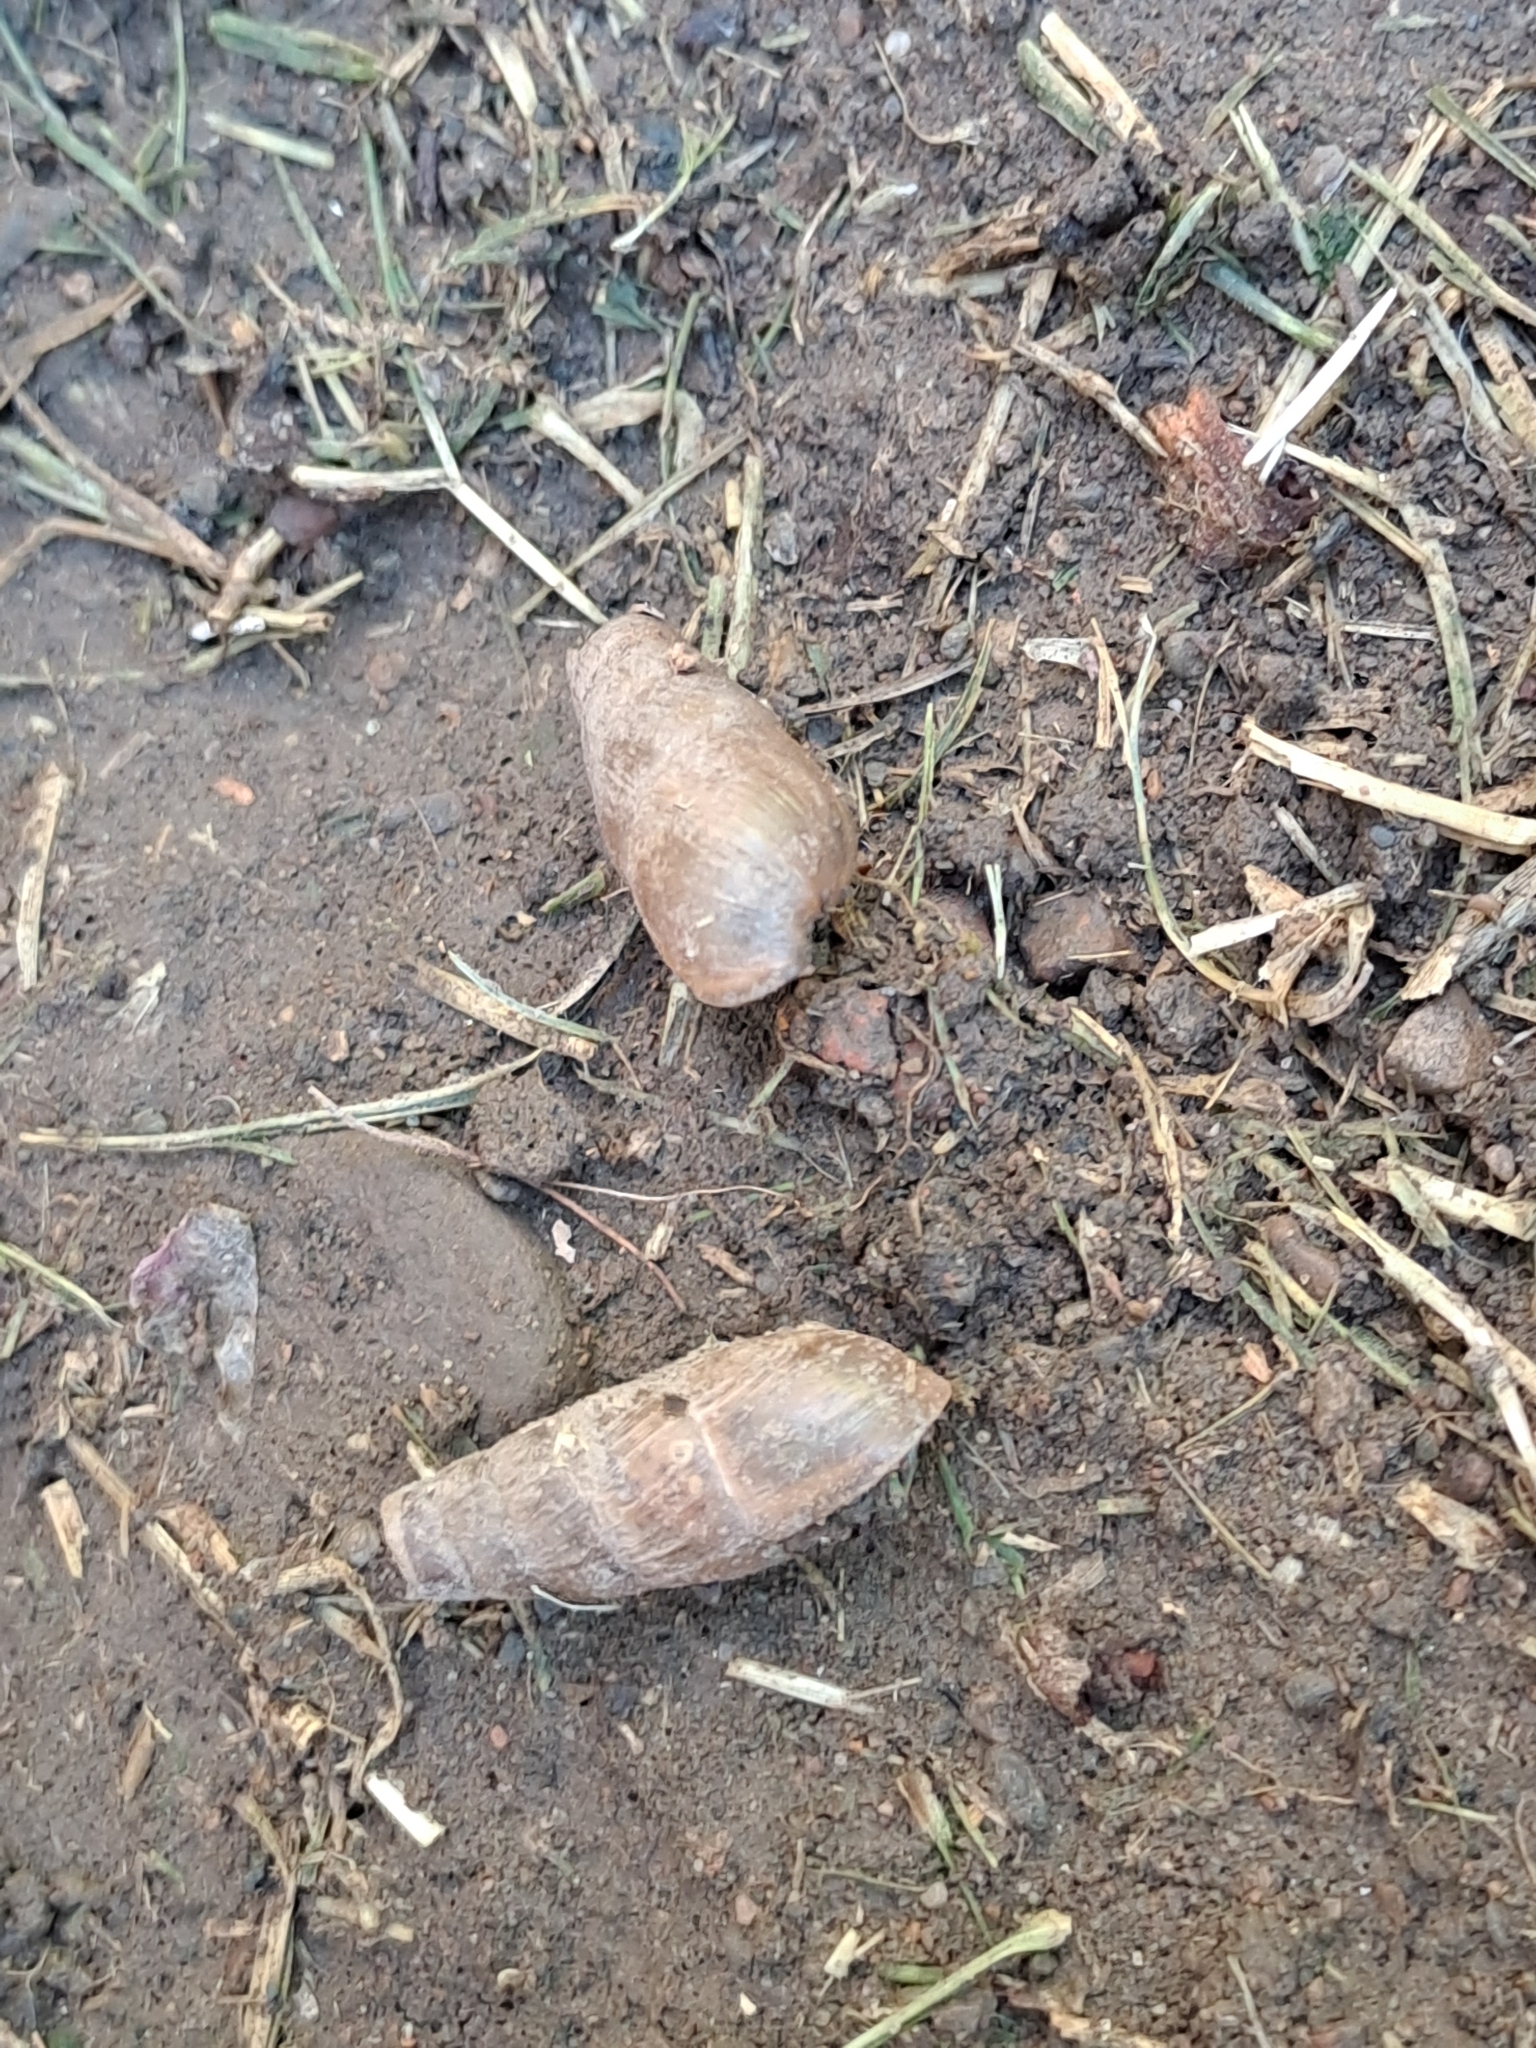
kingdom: Animalia
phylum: Mollusca
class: Gastropoda
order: Stylommatophora
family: Achatinidae
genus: Rumina
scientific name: Rumina decollata
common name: Decollate snail
